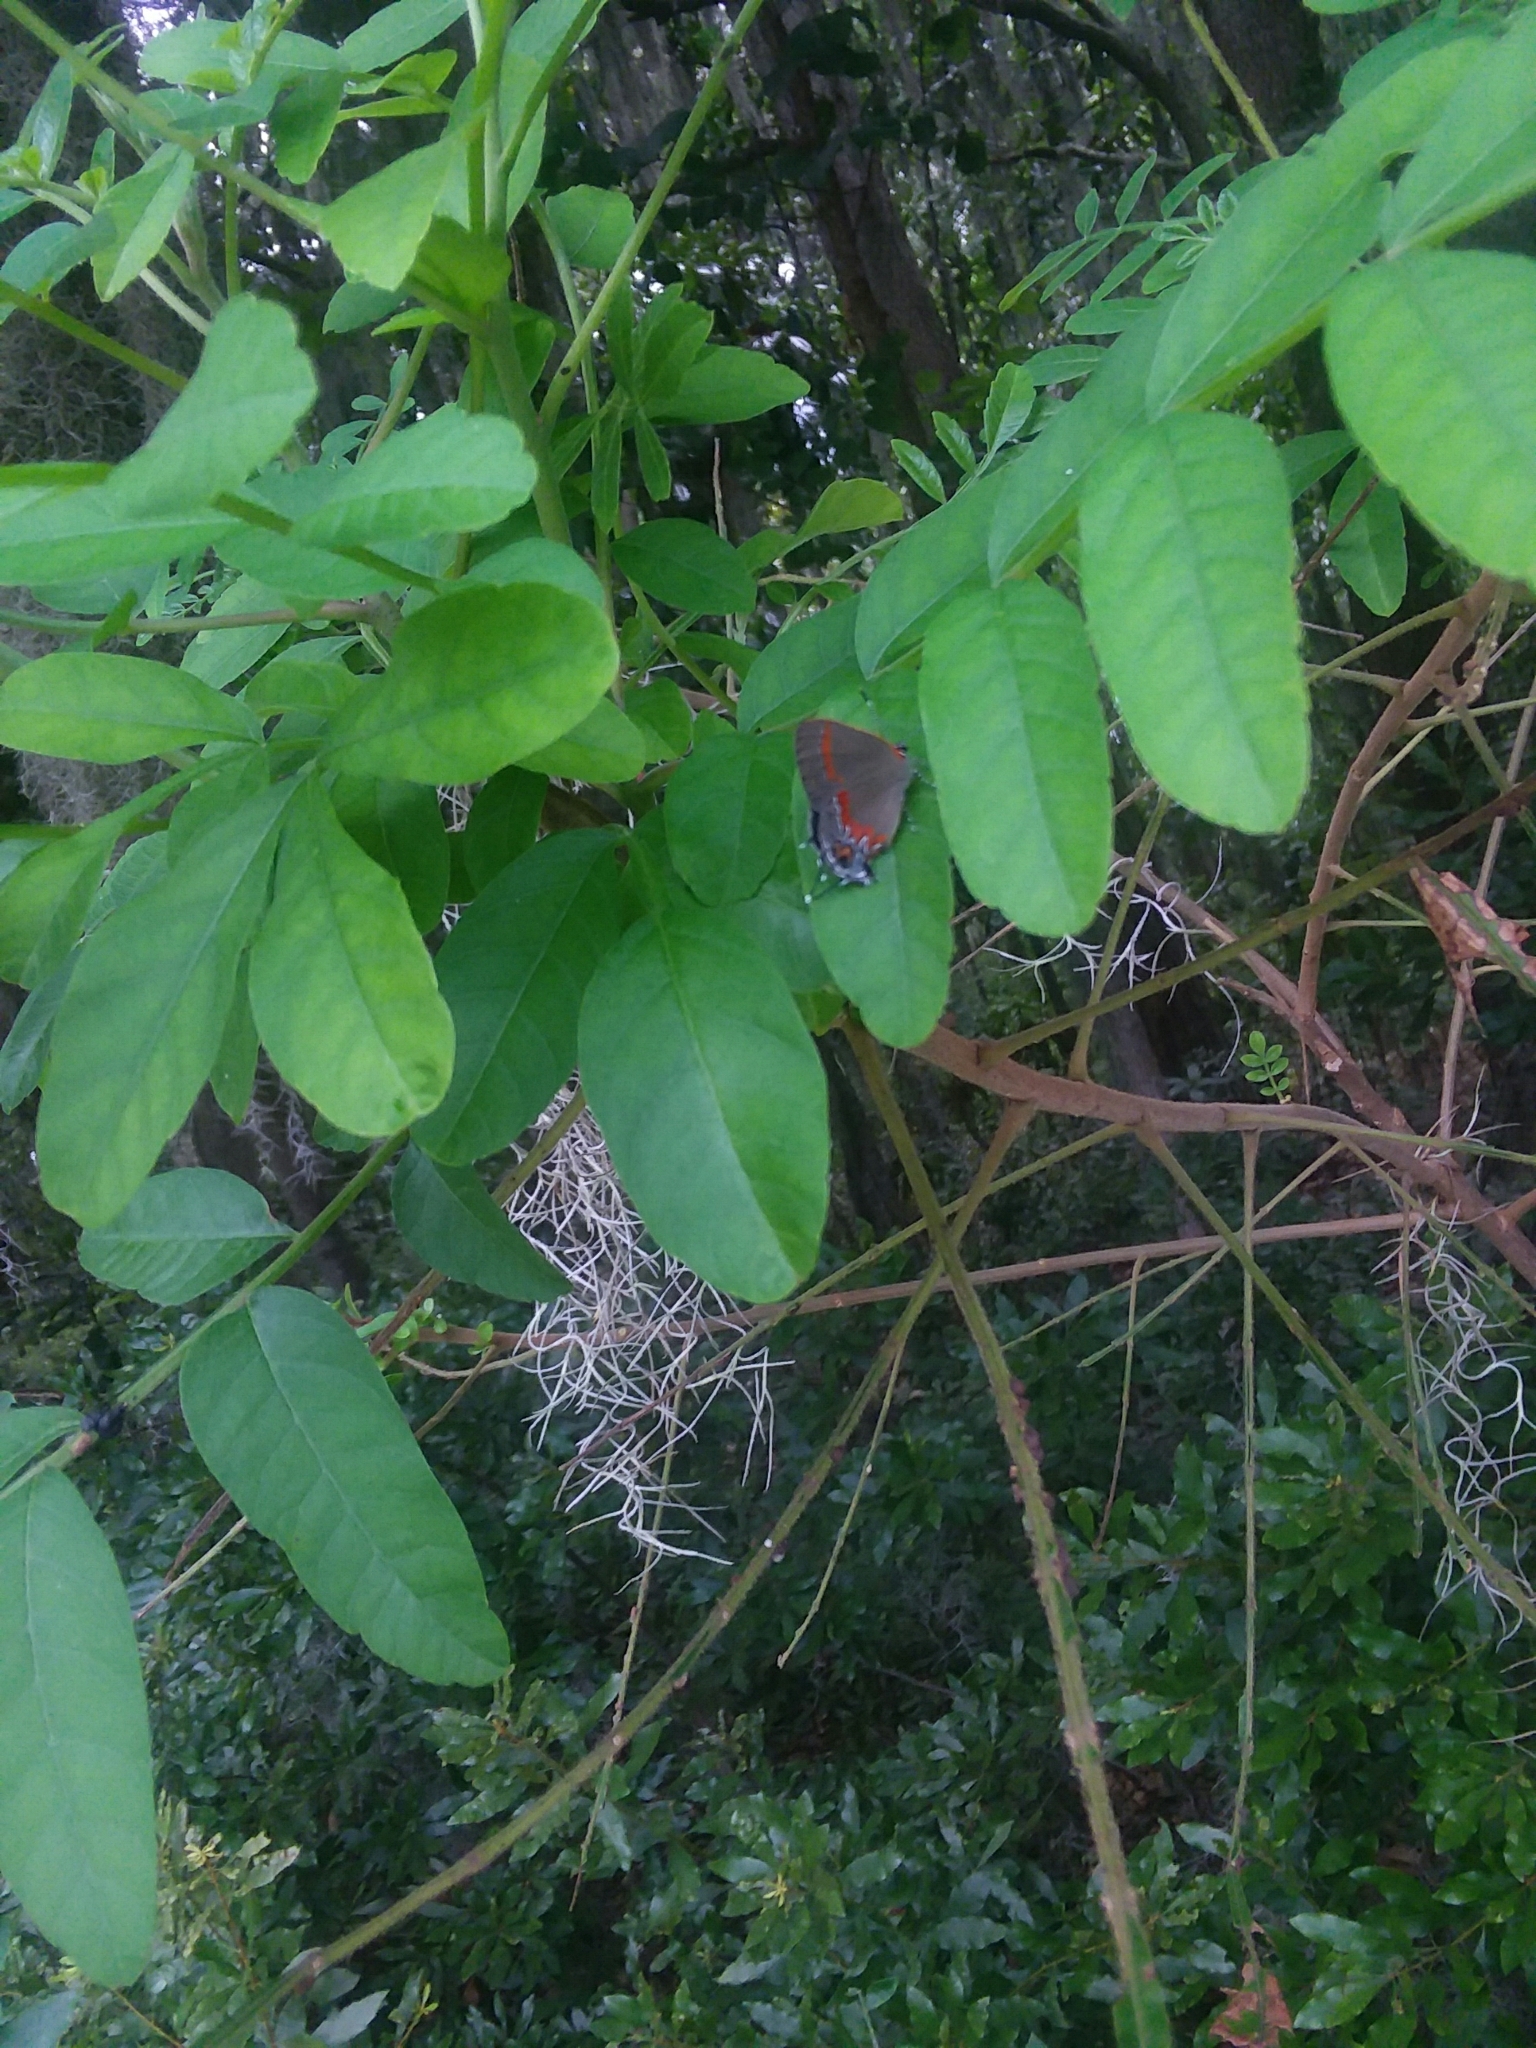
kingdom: Animalia
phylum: Arthropoda
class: Insecta
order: Lepidoptera
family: Lycaenidae
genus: Calycopis
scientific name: Calycopis cecrops
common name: Red-banded hairstreak
